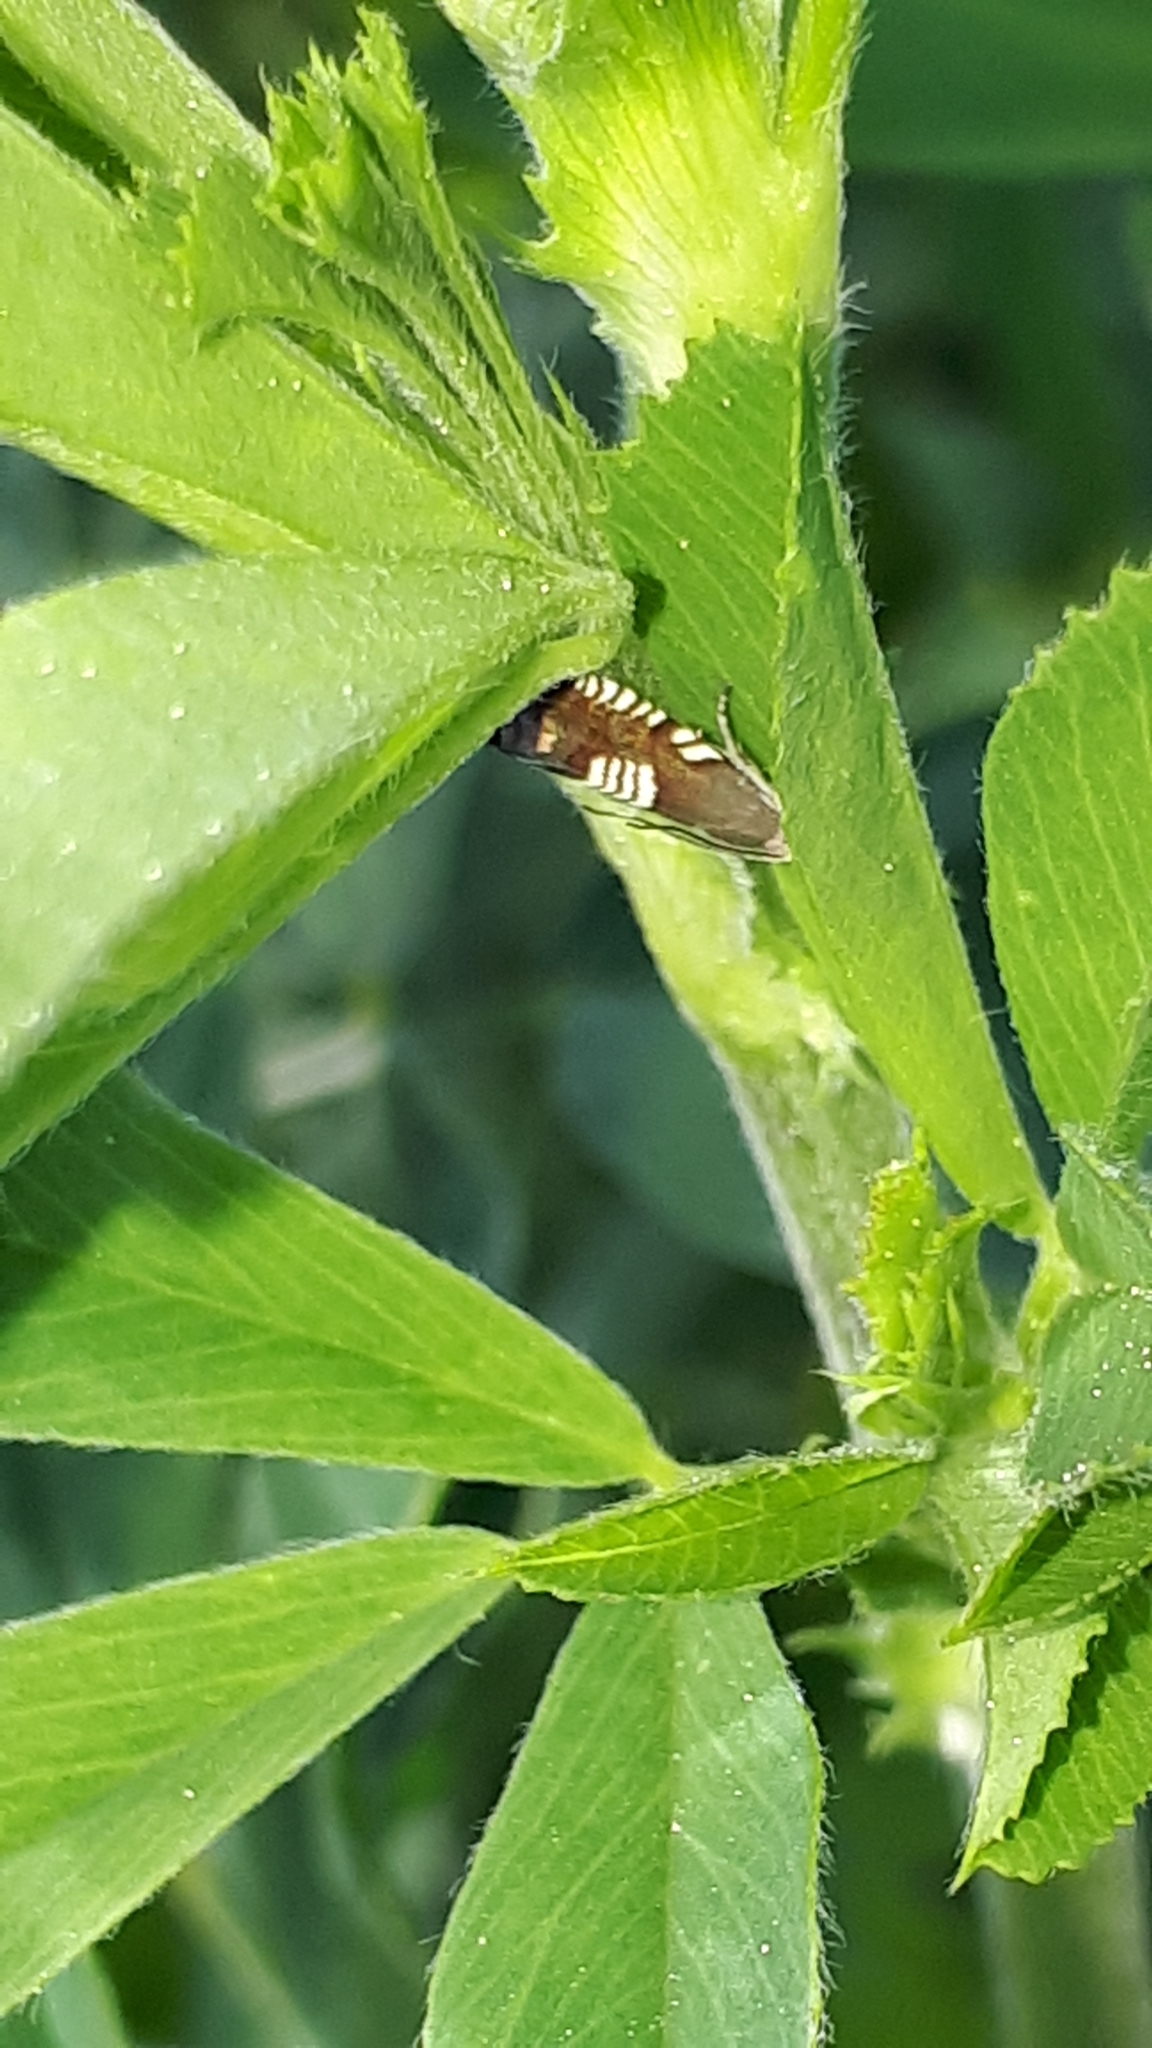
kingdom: Animalia
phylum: Arthropoda
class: Insecta
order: Lepidoptera
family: Tortricidae
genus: Grapholita
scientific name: Grapholita compositella
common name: Triple-stripe piercer
